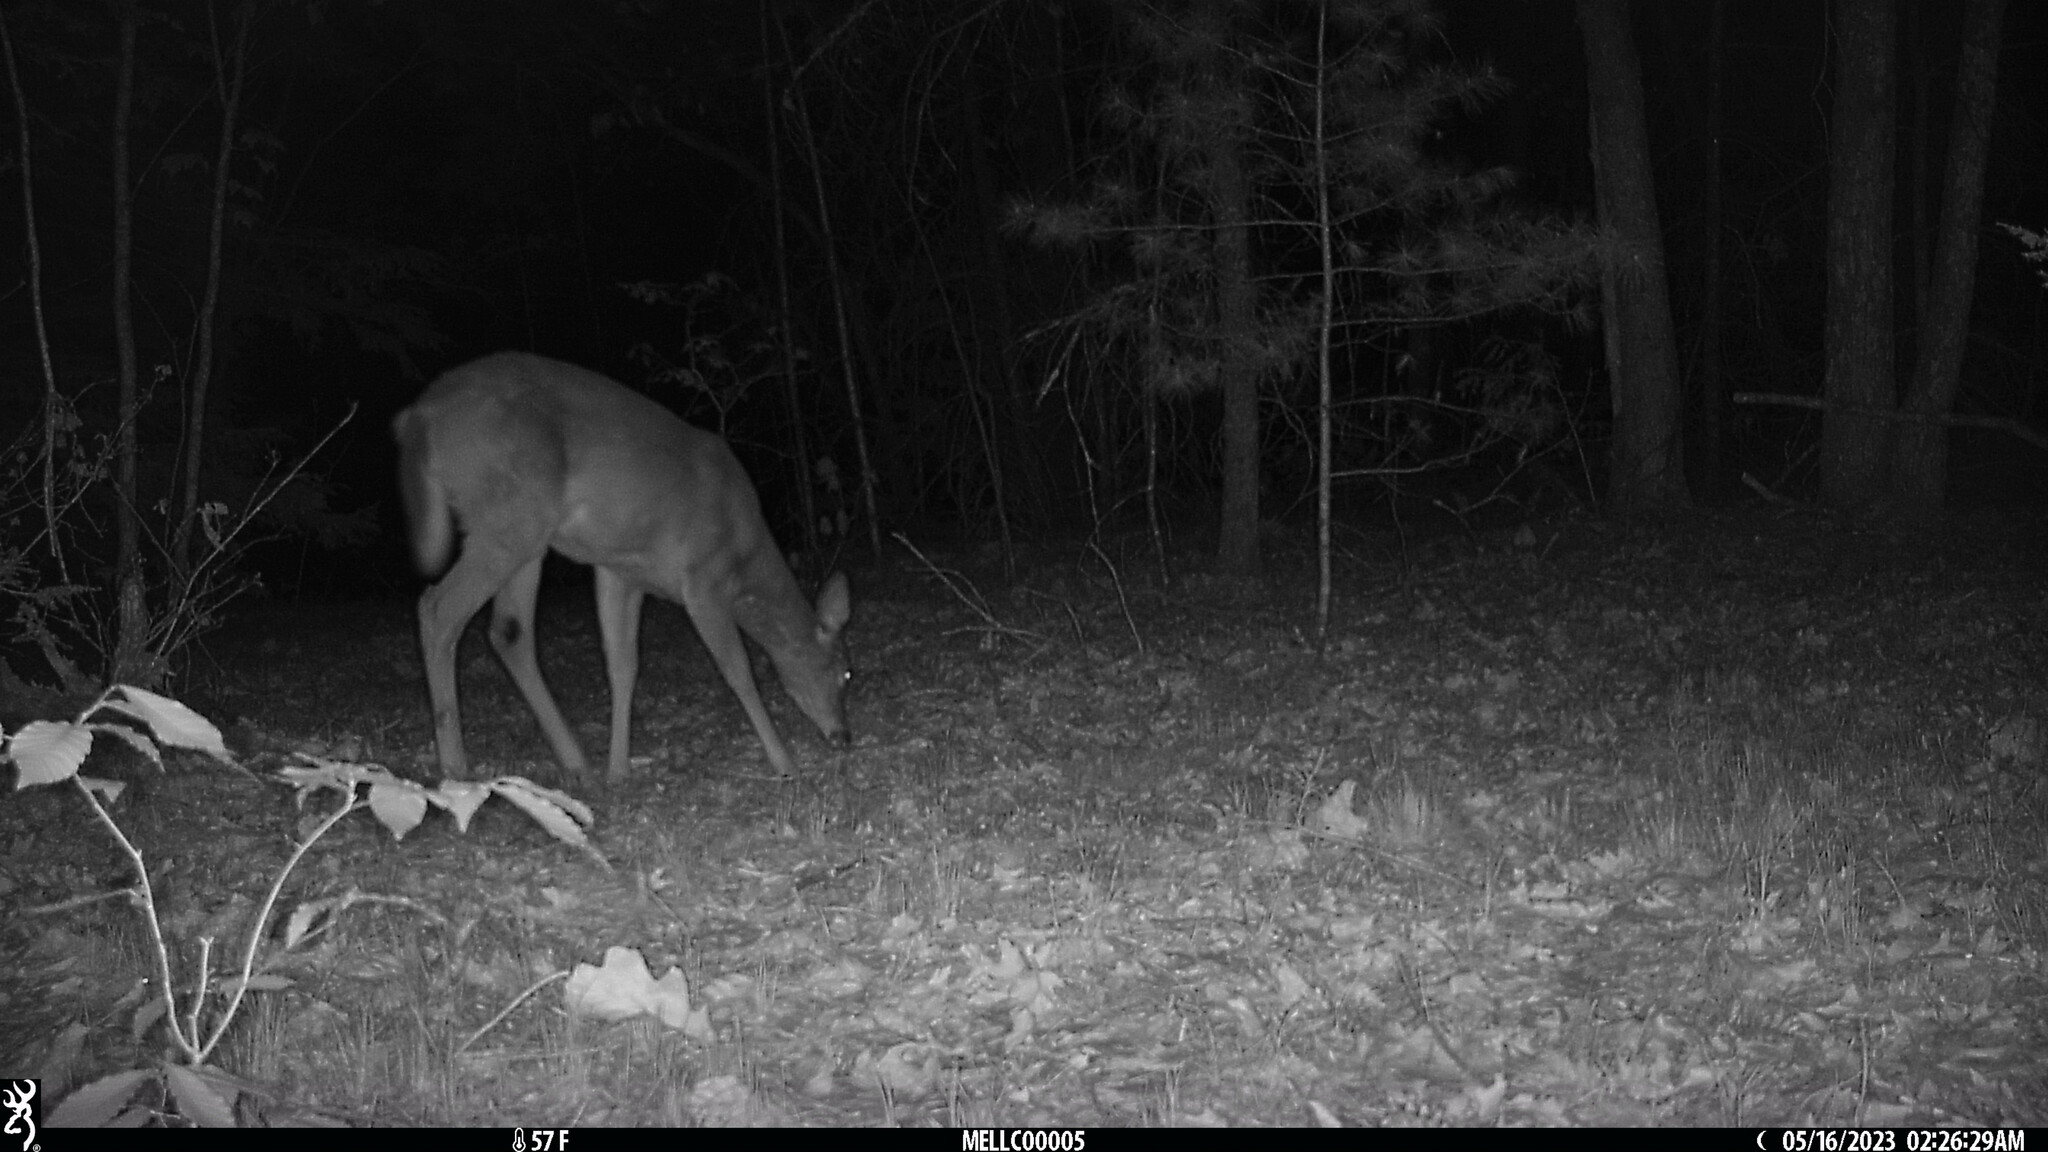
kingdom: Animalia
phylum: Chordata
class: Mammalia
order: Artiodactyla
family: Cervidae
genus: Odocoileus
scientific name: Odocoileus virginianus
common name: White-tailed deer
